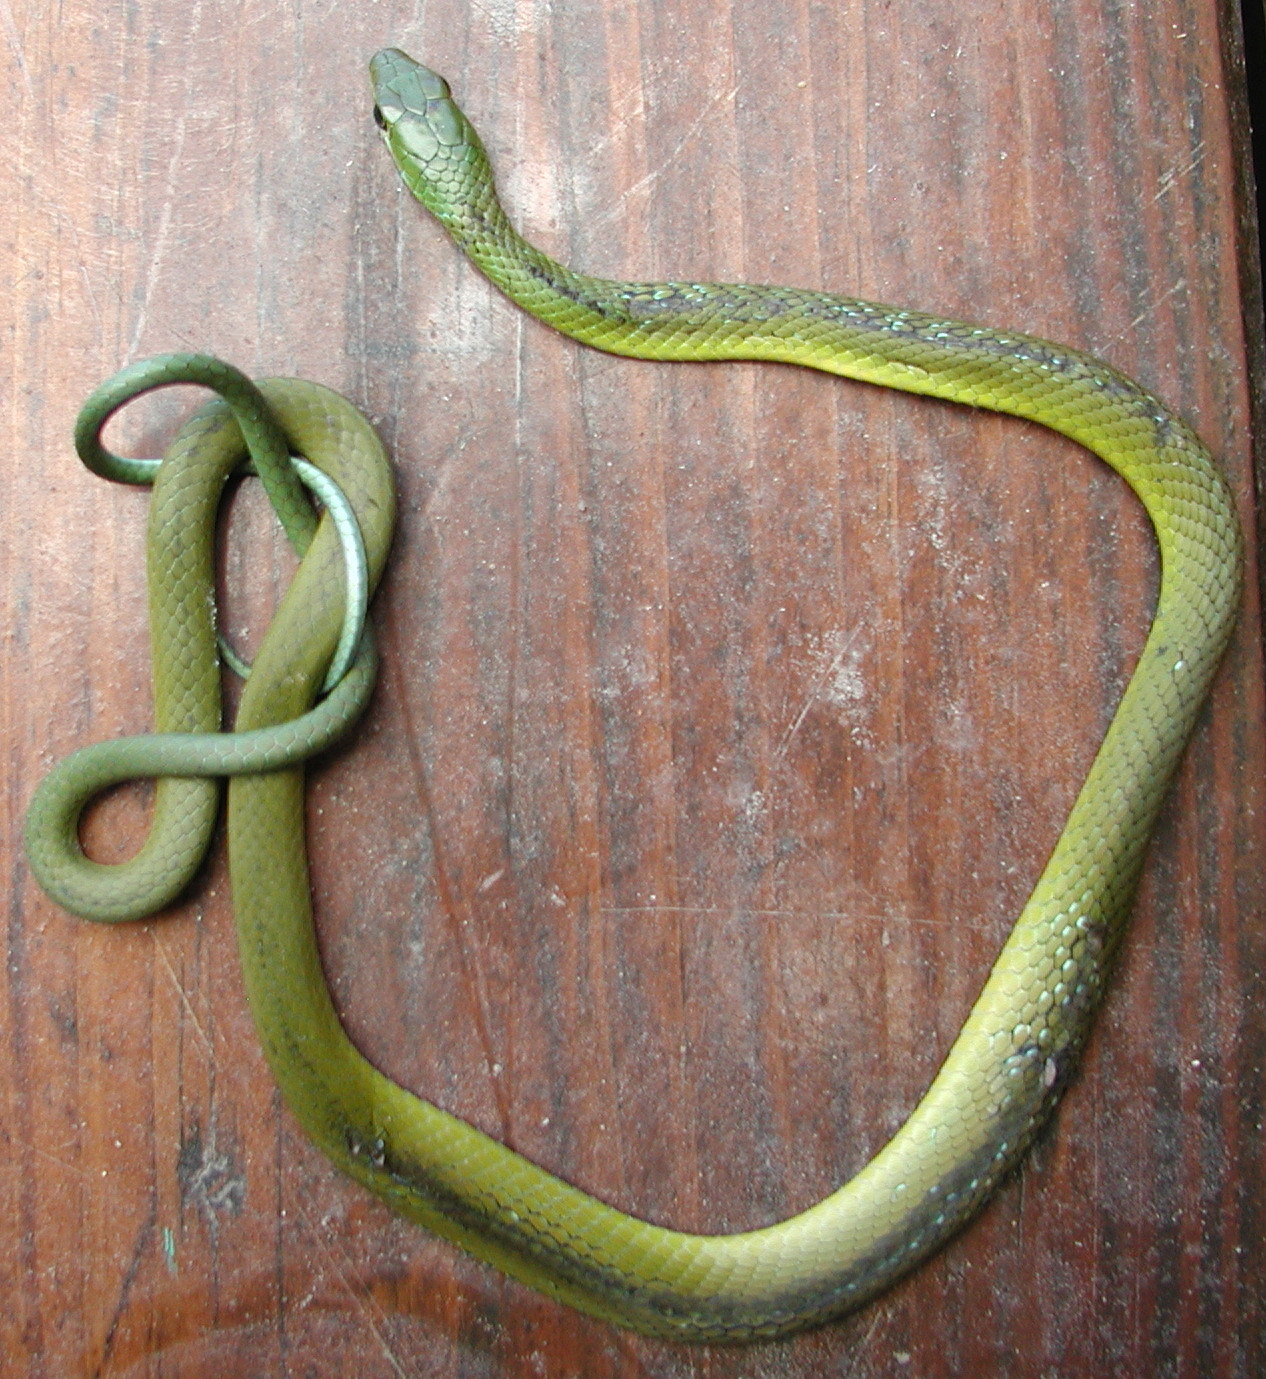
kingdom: Animalia
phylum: Chordata
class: Squamata
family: Colubridae
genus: Philothamnus
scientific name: Philothamnus occidentalis
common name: Western natal green snake
